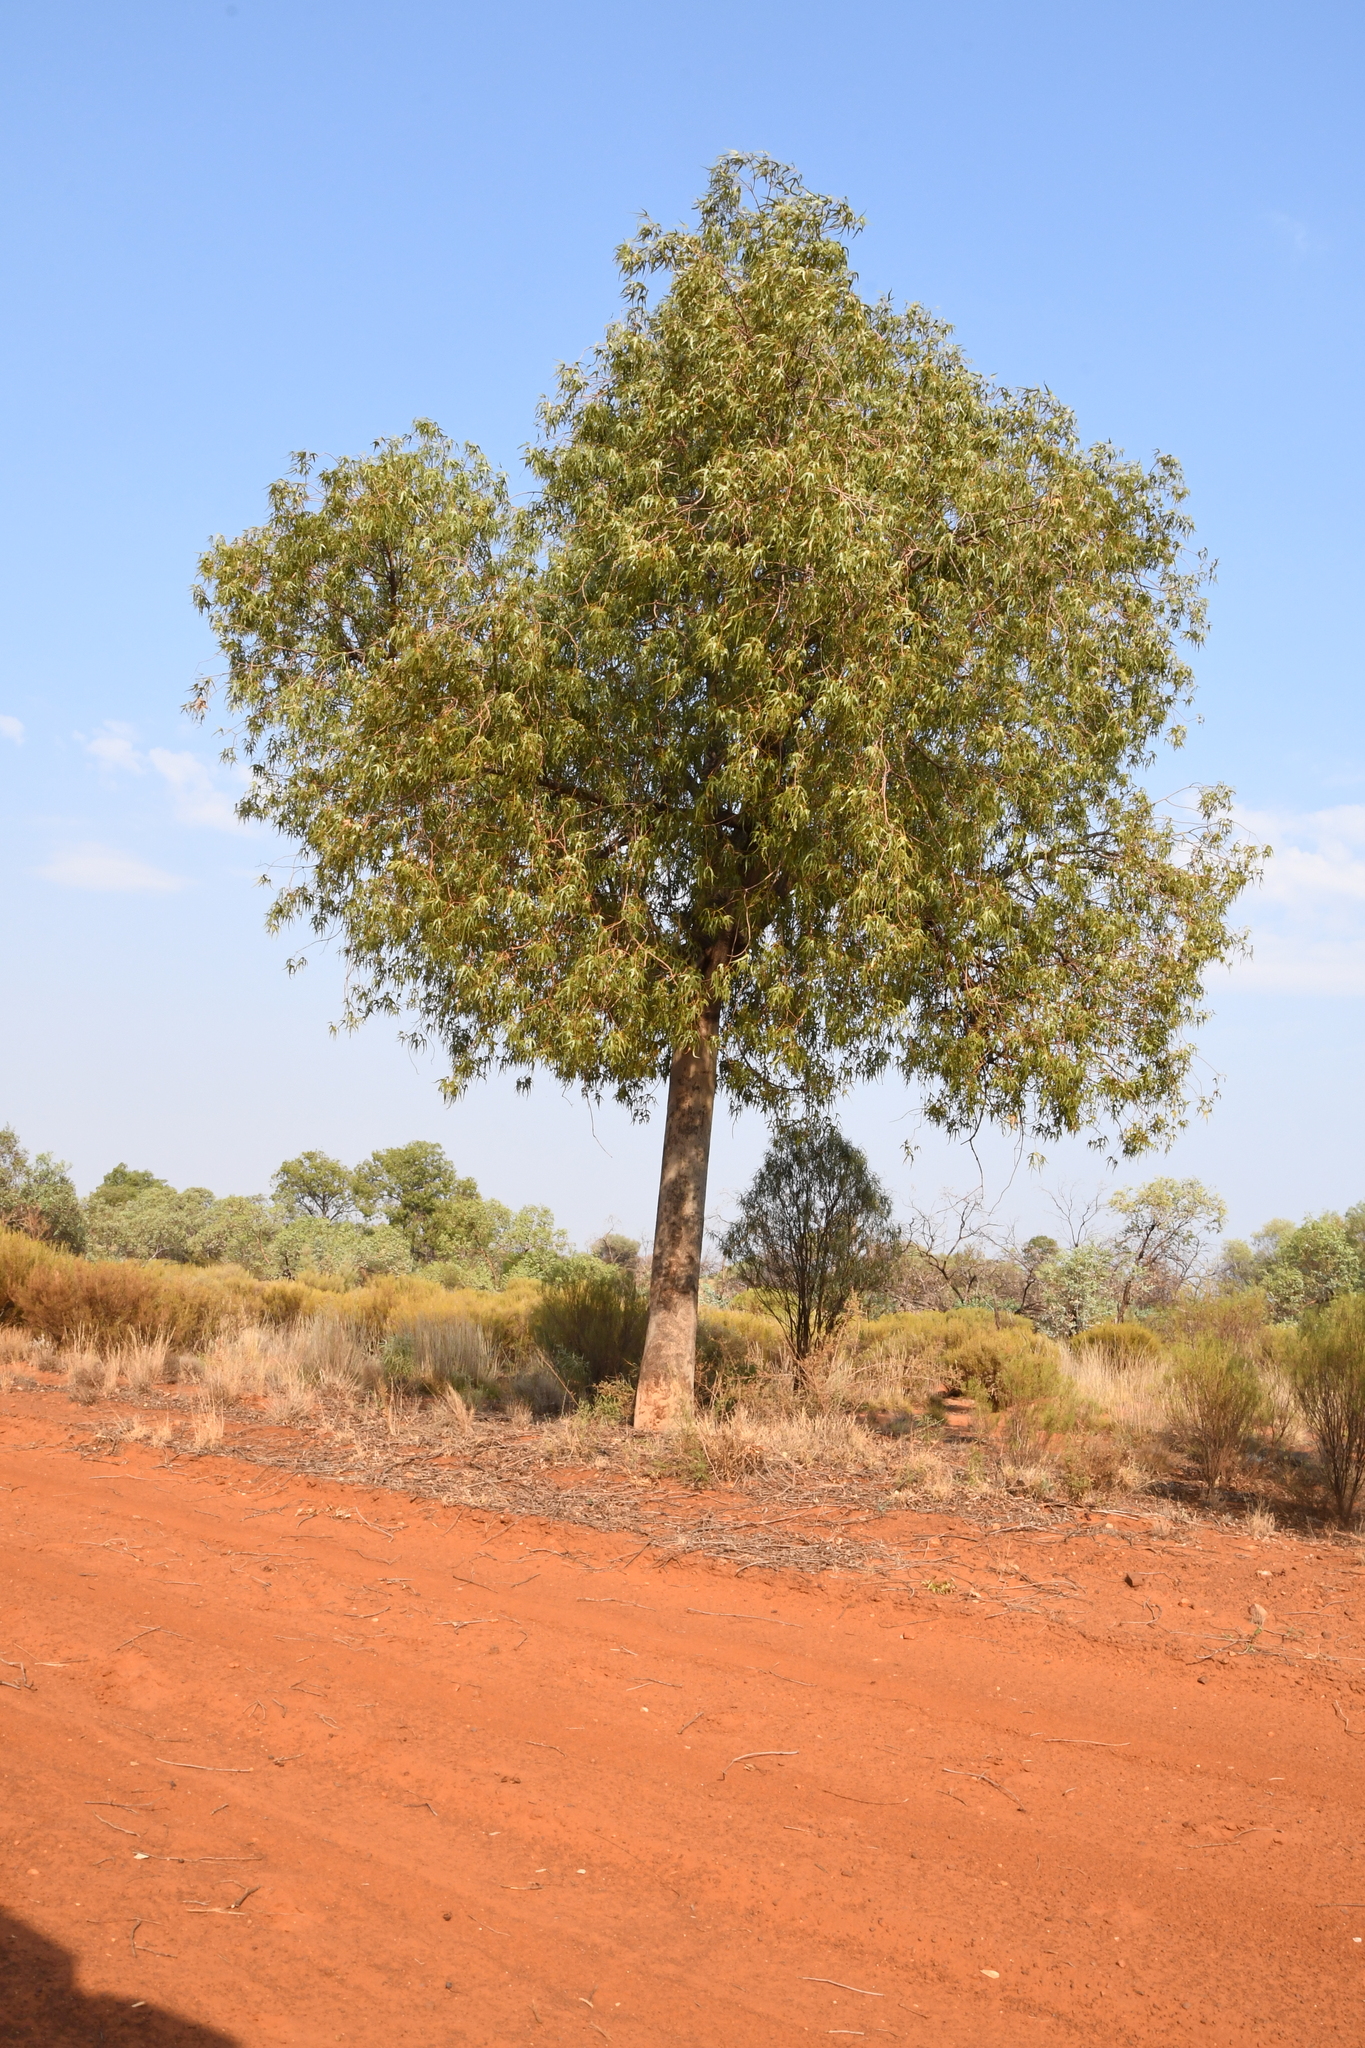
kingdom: Plantae
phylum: Tracheophyta
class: Magnoliopsida
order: Malvales
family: Malvaceae
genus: Brachychiton
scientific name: Brachychiton gregorii
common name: Desert kurrajong
